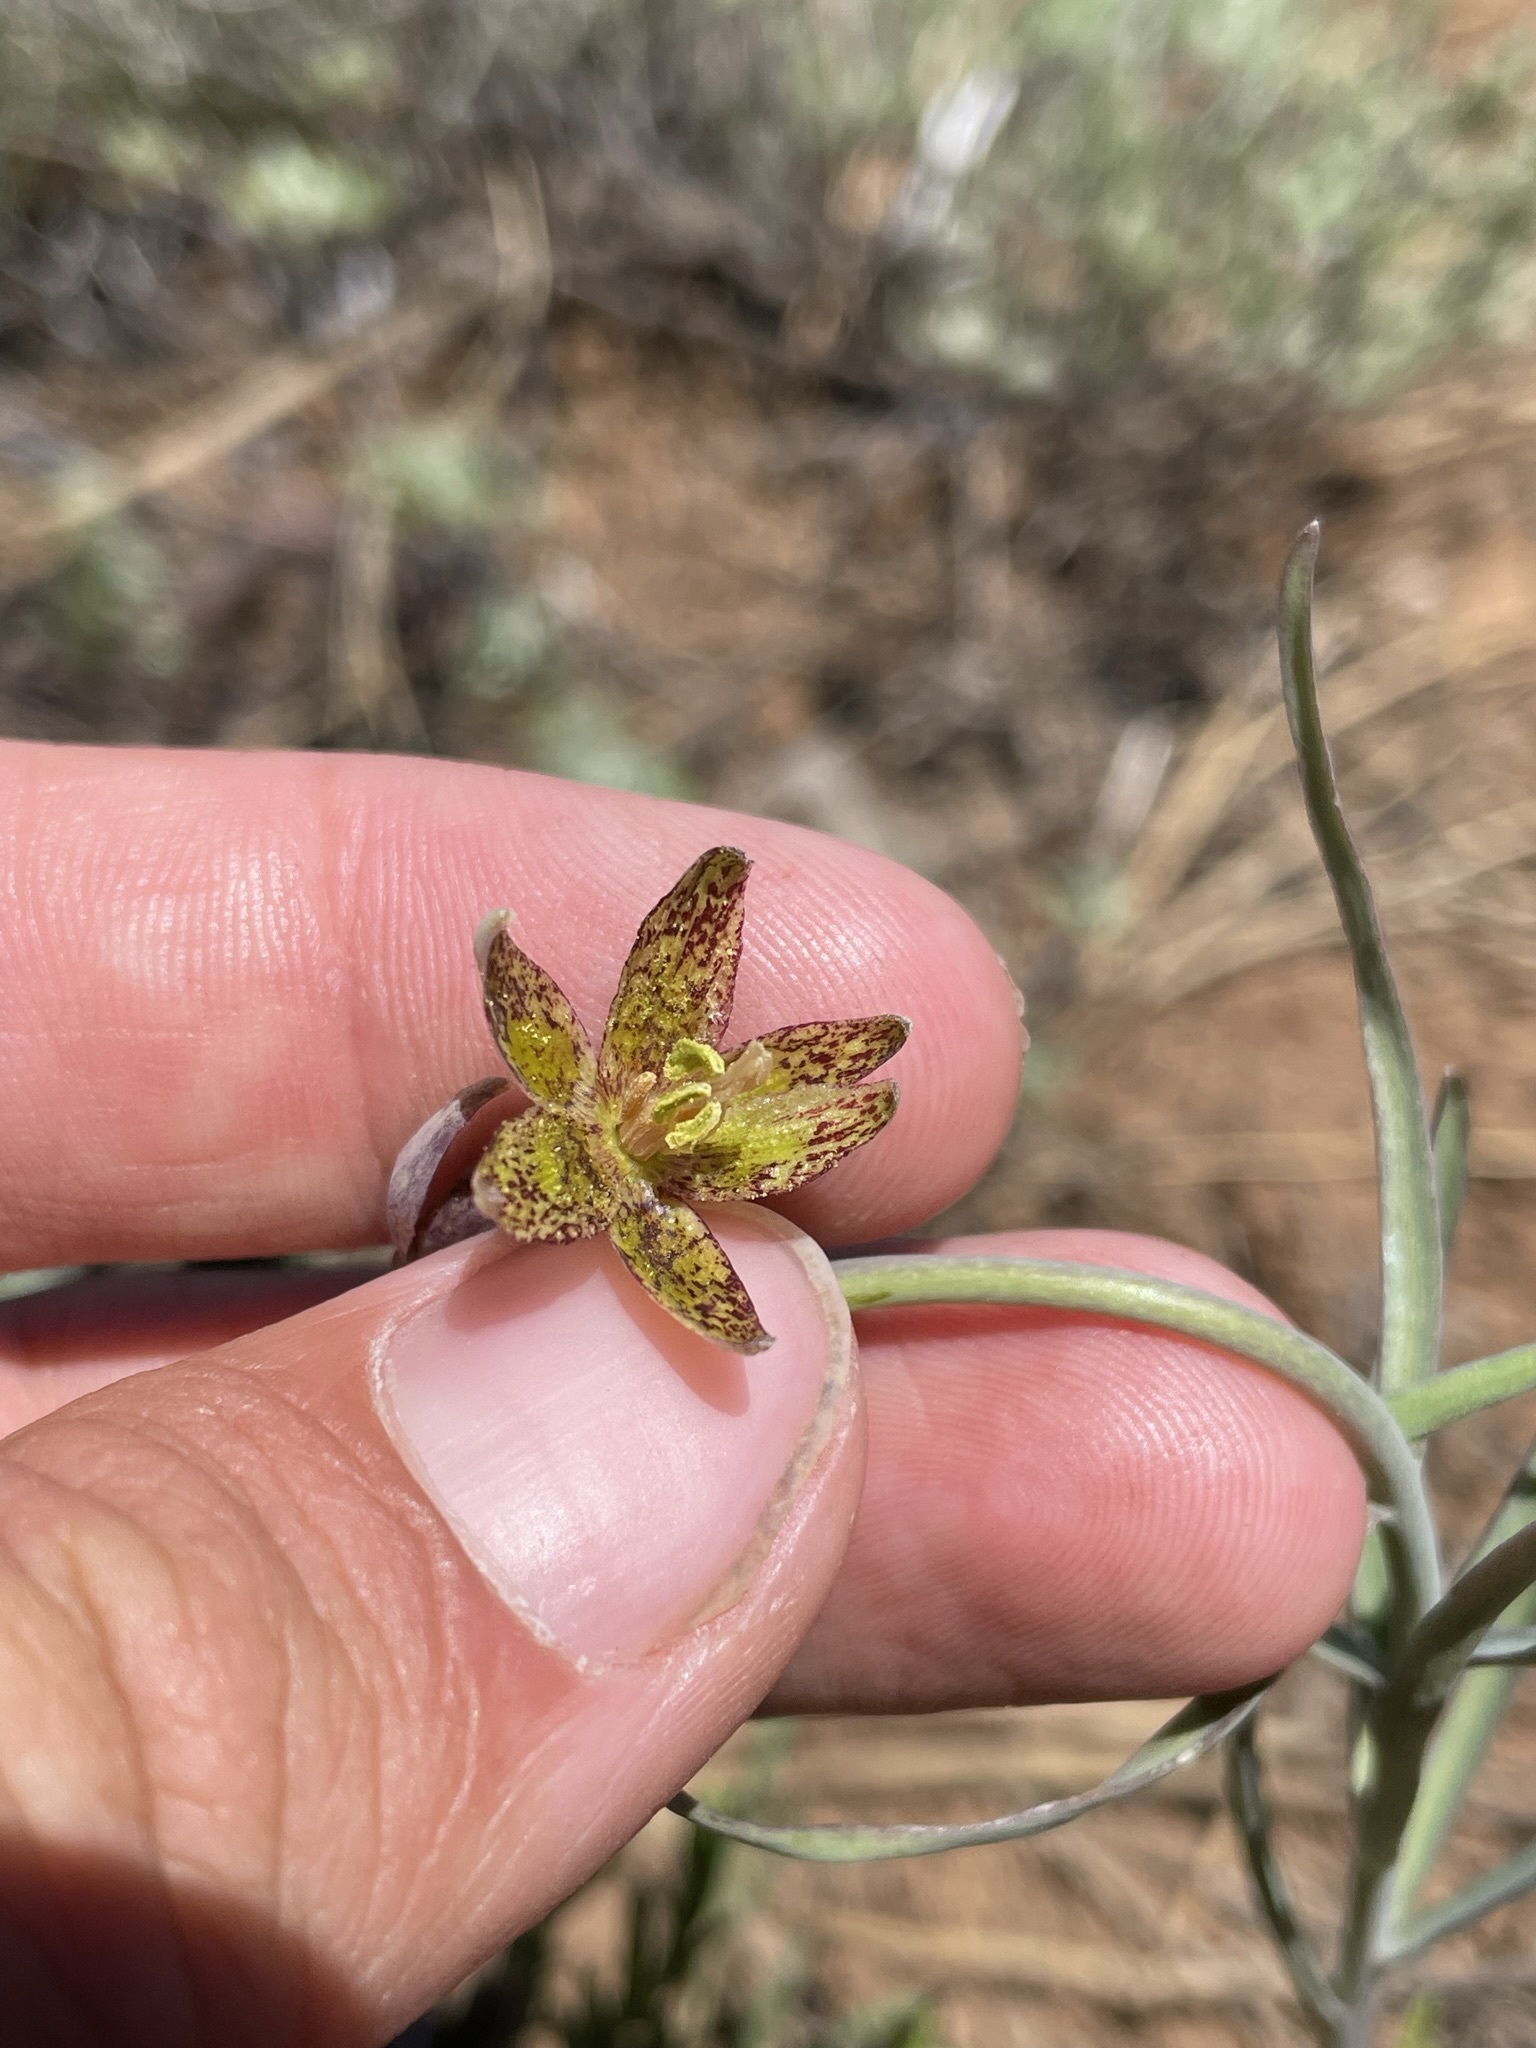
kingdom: Plantae
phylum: Tracheophyta
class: Liliopsida
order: Liliales
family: Liliaceae
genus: Fritillaria
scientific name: Fritillaria atropurpurea
